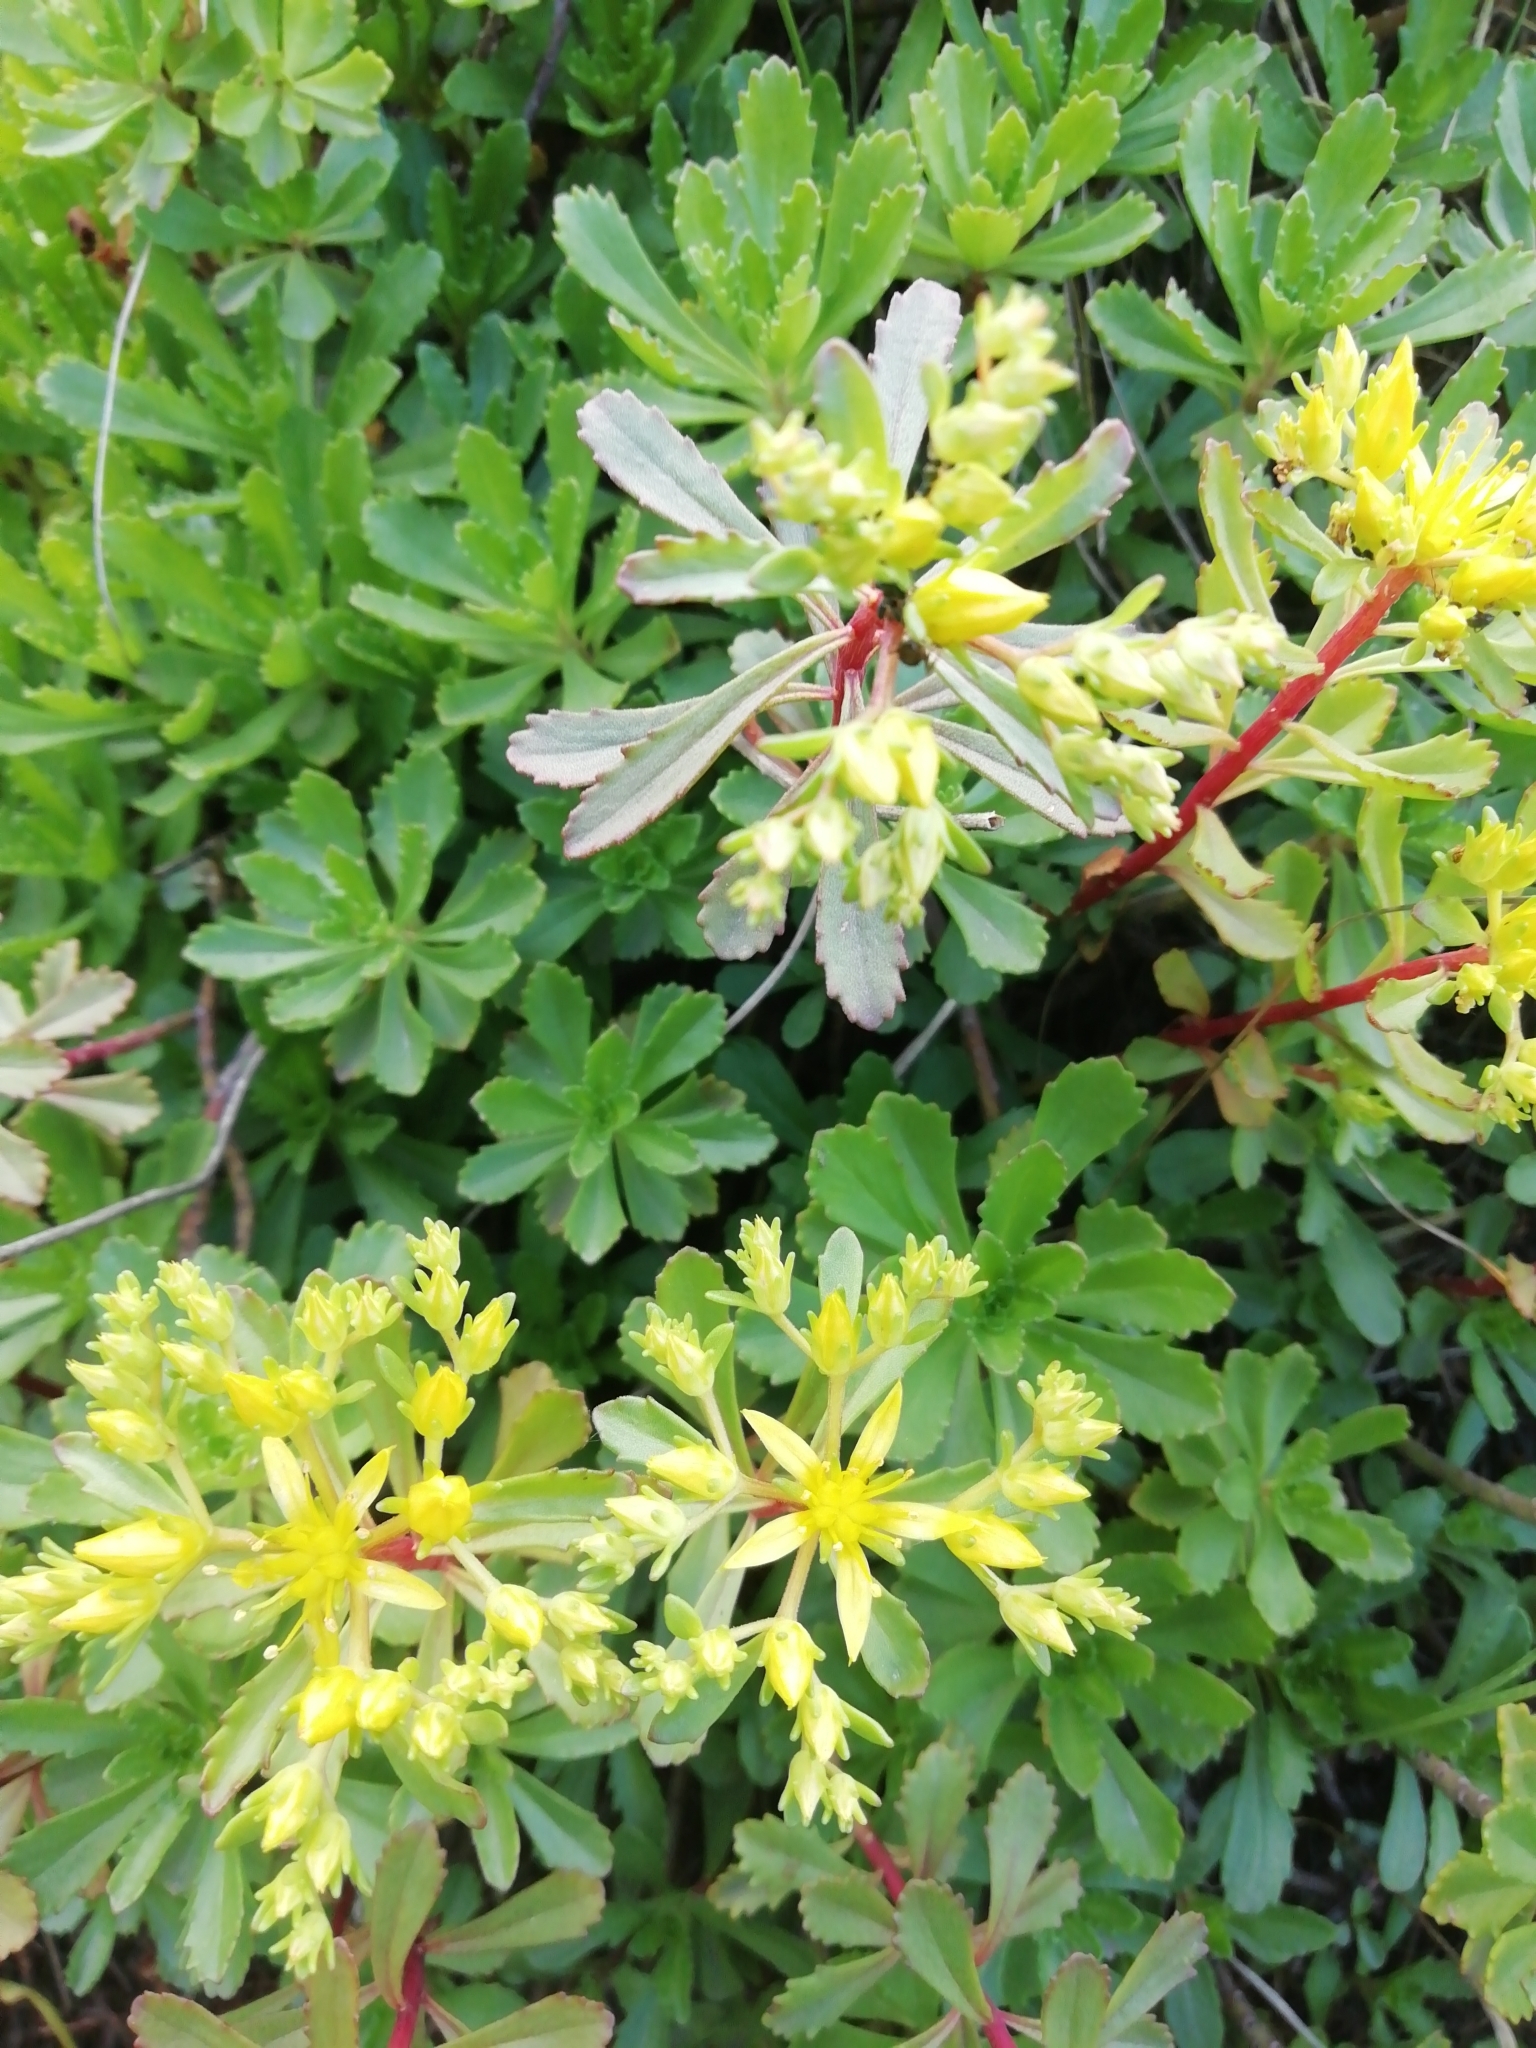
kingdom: Plantae
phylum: Tracheophyta
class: Magnoliopsida
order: Saxifragales
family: Crassulaceae
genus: Phedimus
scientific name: Phedimus hybridus
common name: Hybrid stonecrop
